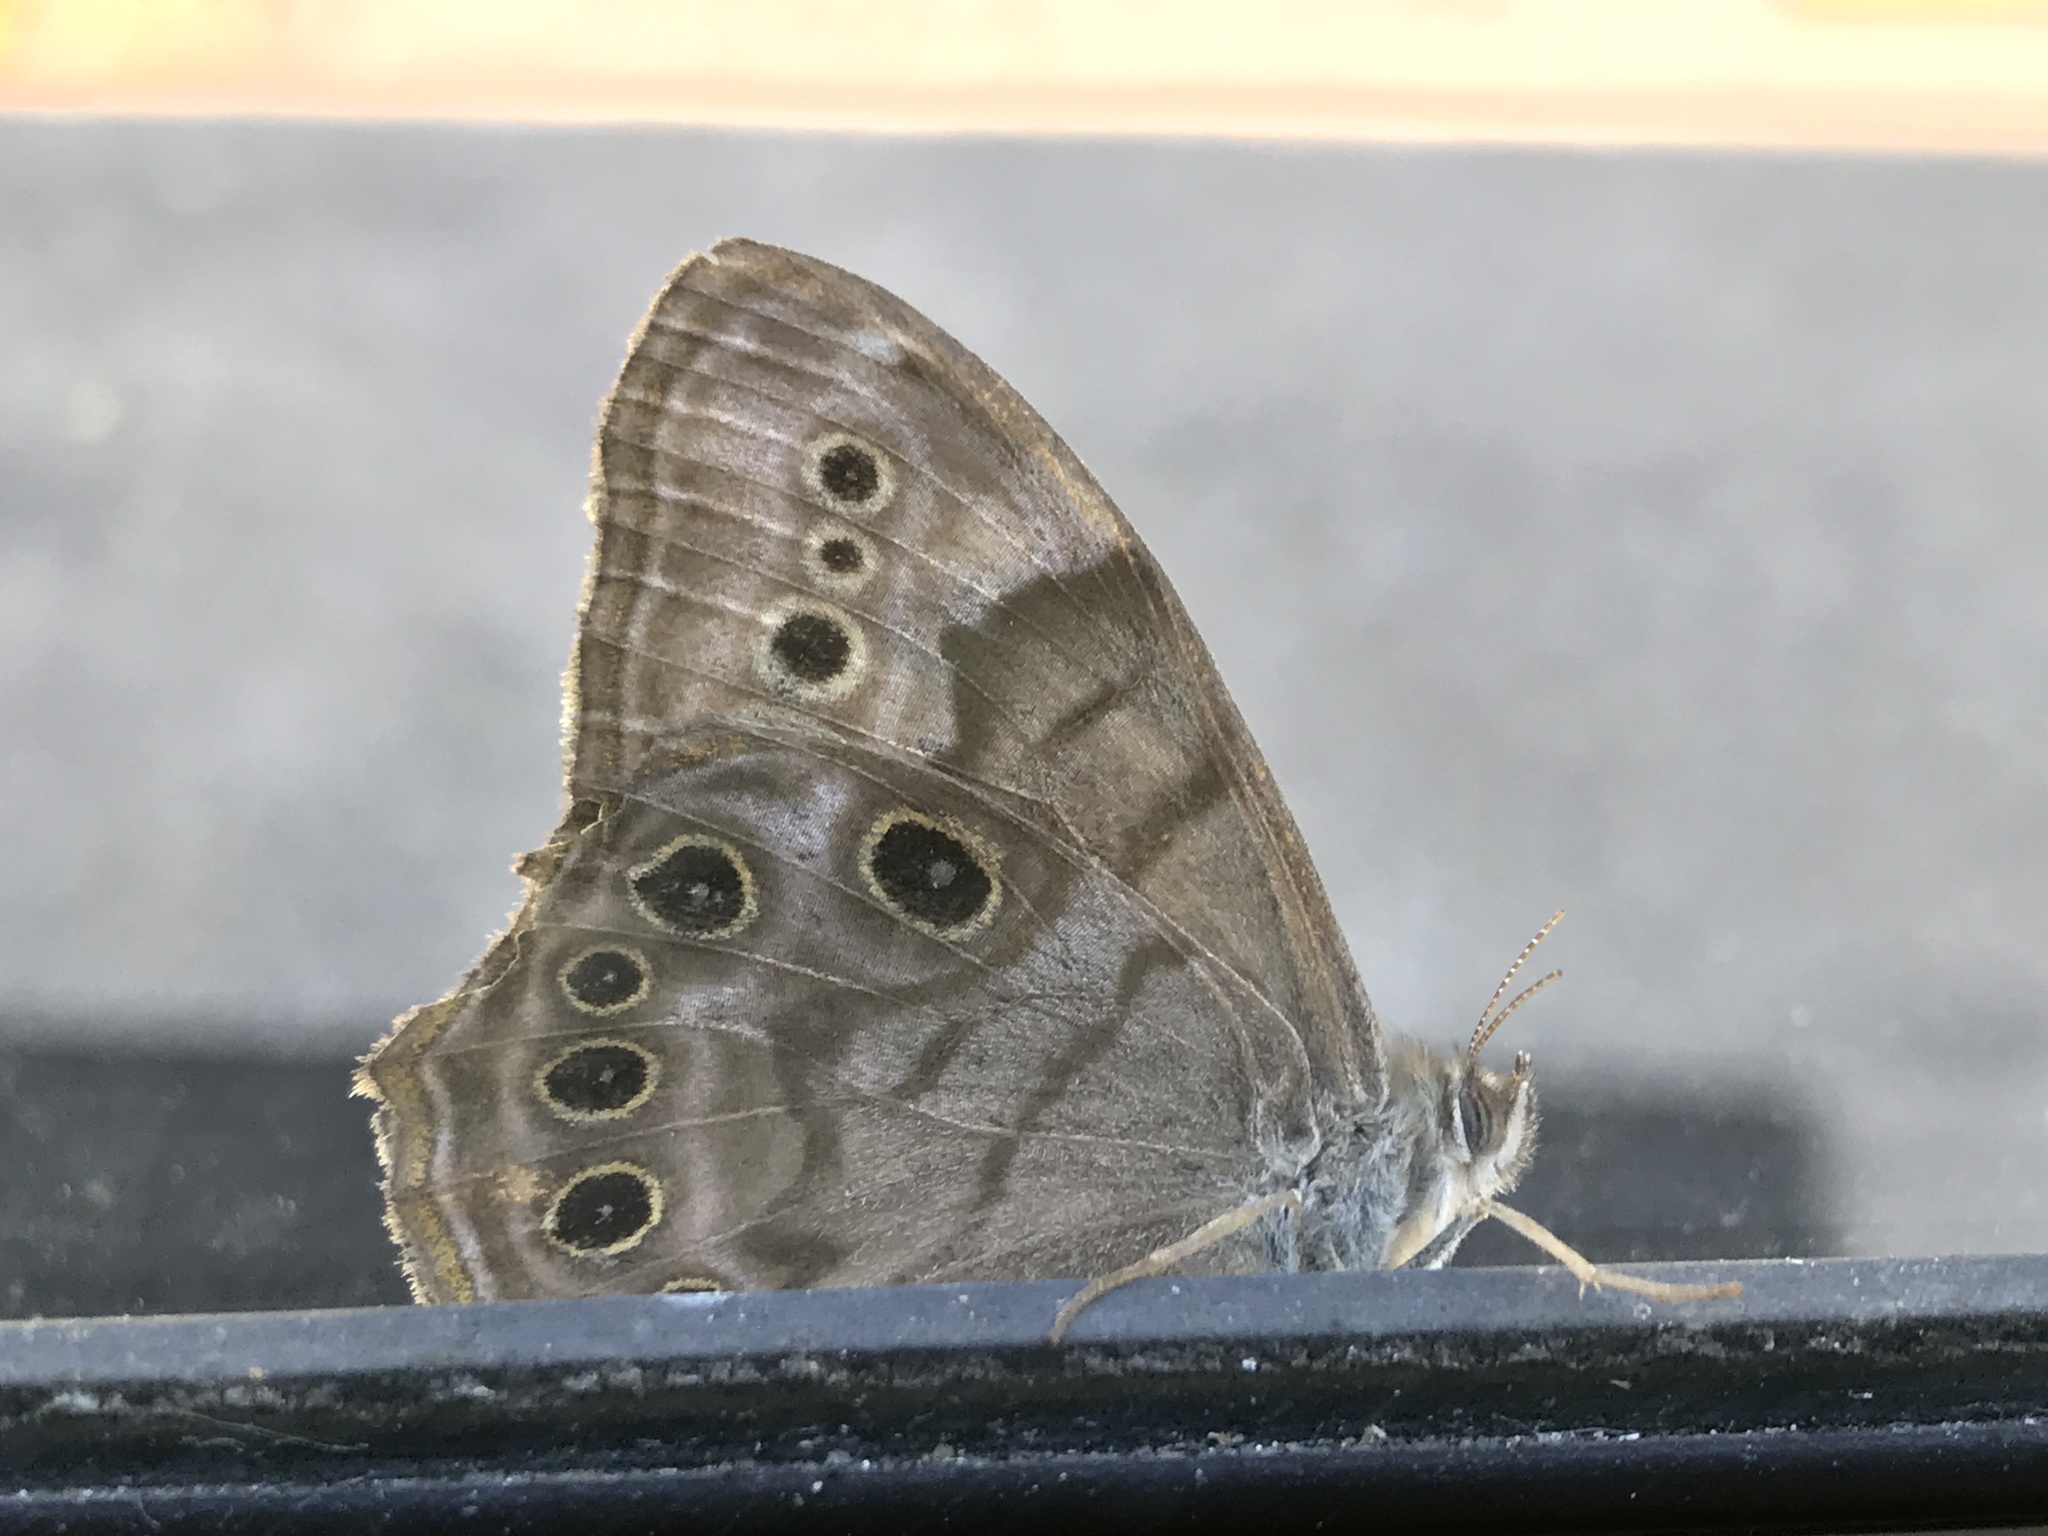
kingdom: Animalia
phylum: Arthropoda
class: Insecta
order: Lepidoptera
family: Nymphalidae
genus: Lethe
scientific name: Lethe anthedon
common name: Northern pearly-eye
